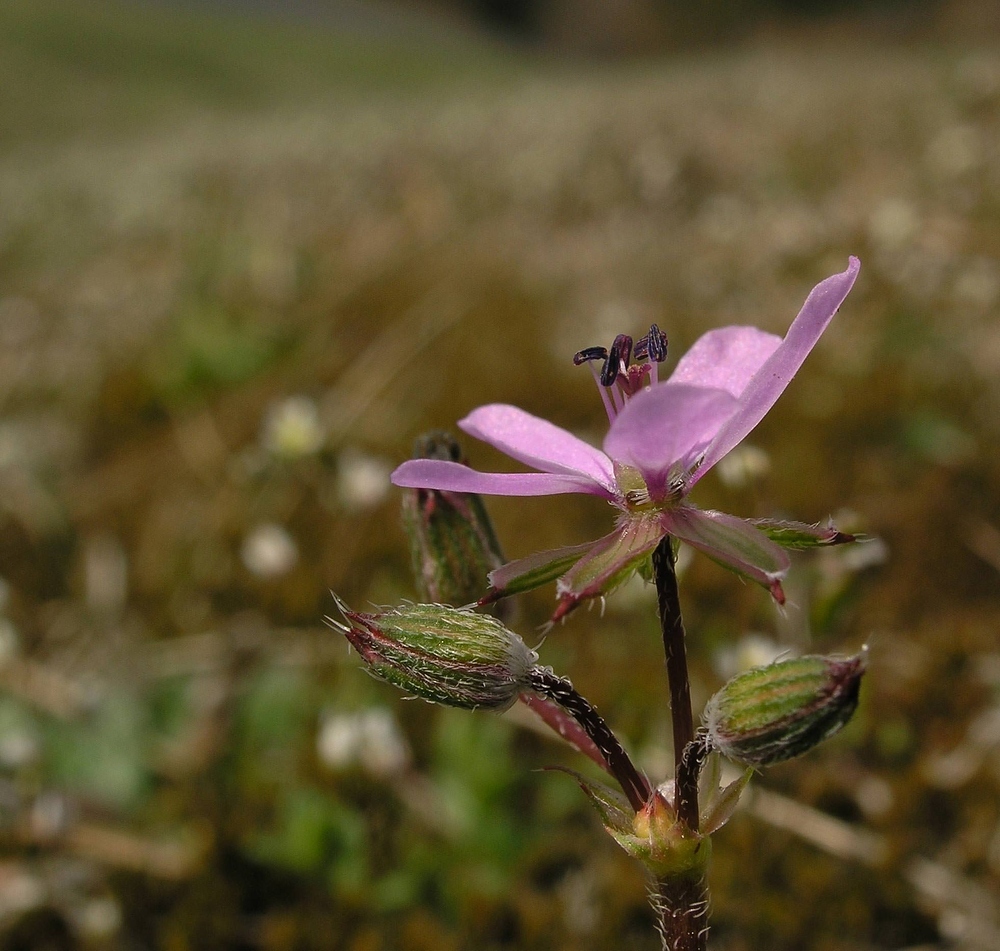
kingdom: Plantae
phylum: Tracheophyta
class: Magnoliopsida
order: Geraniales
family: Geraniaceae
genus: Erodium
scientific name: Erodium cicutarium
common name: Common stork's-bill
